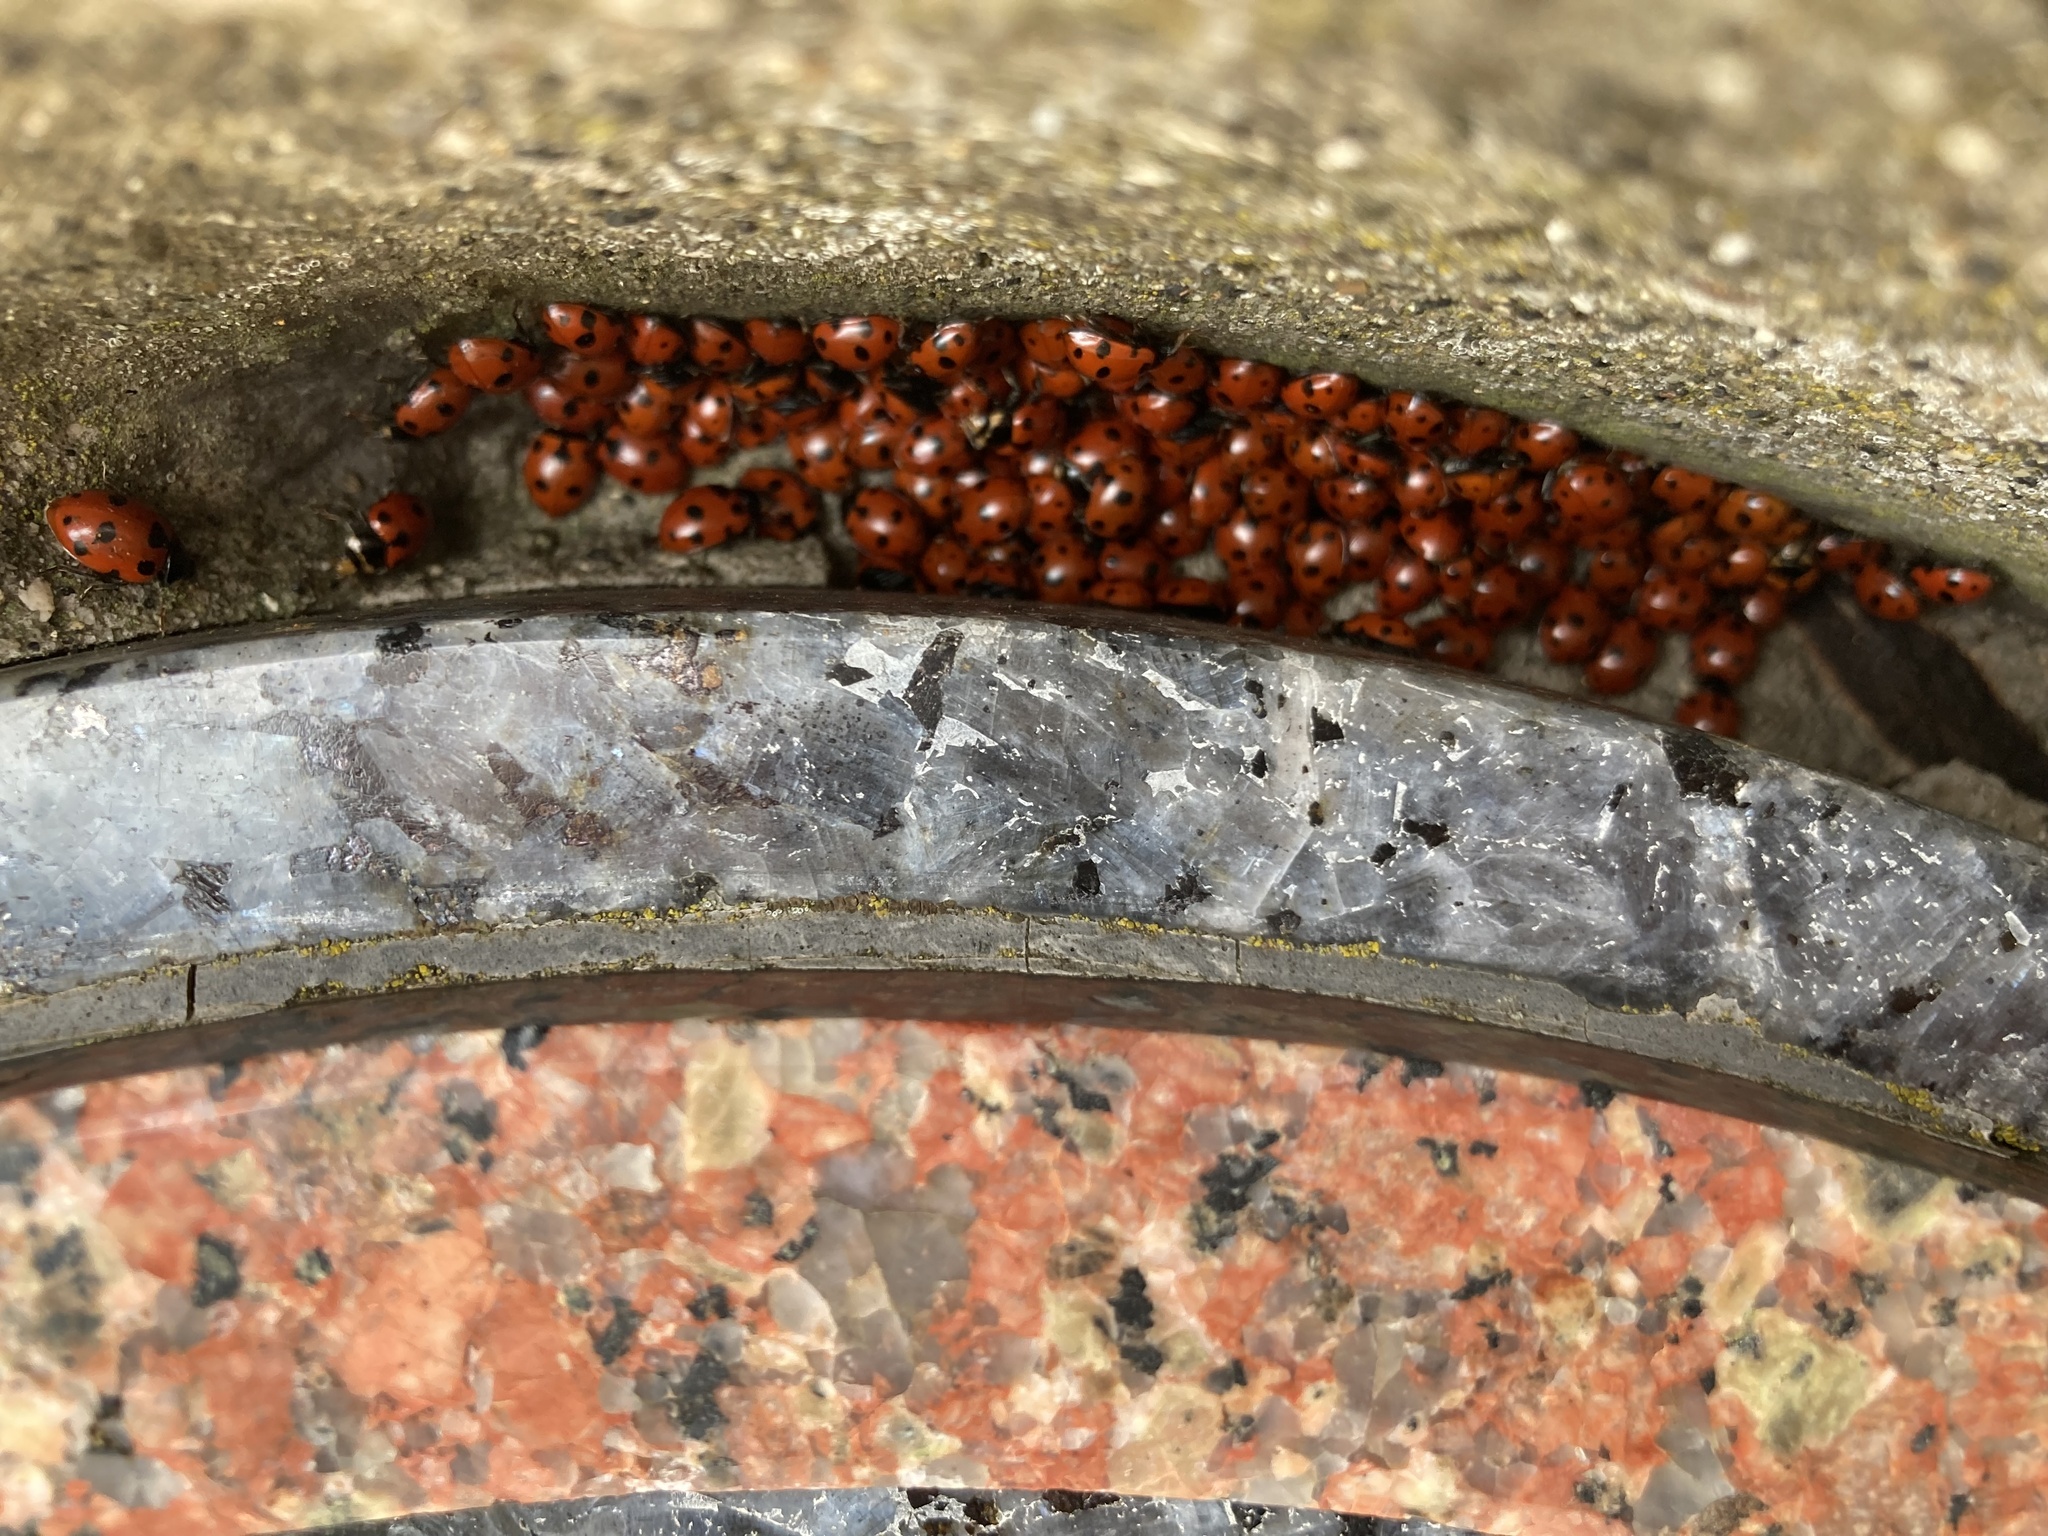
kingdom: Animalia
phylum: Arthropoda
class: Insecta
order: Coleoptera
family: Coccinellidae
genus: Ceratomegilla
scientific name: Ceratomegilla undecimnotata
